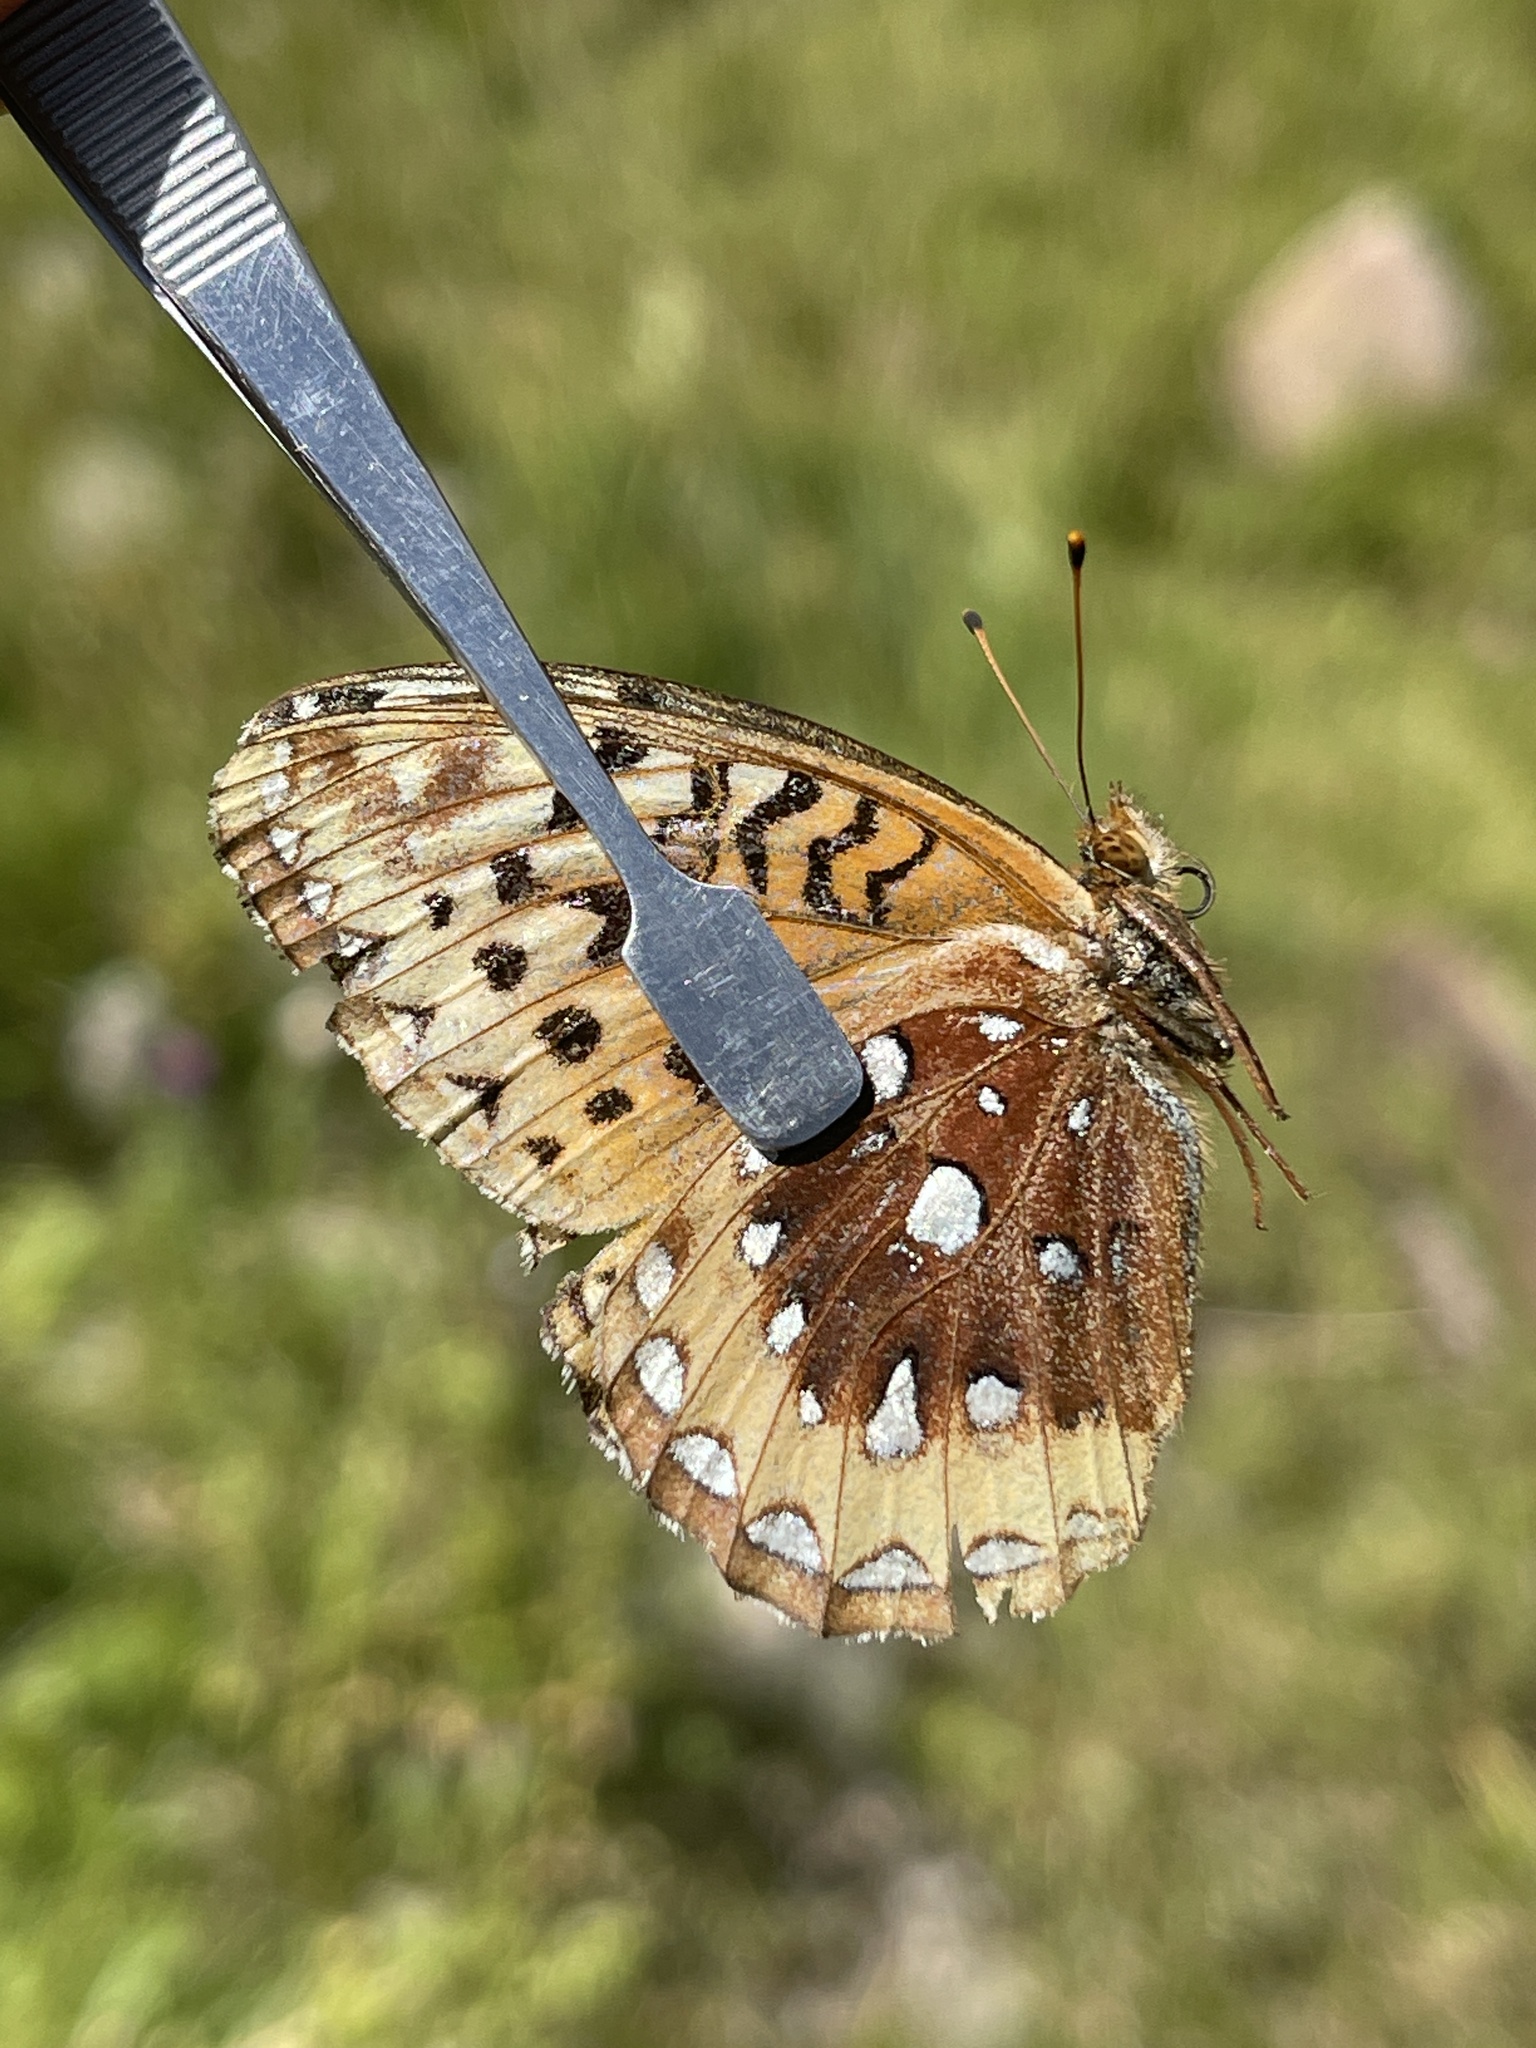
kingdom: Animalia
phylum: Arthropoda
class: Insecta
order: Lepidoptera
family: Nymphalidae
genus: Speyeria
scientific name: Speyeria cybele
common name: Great spangled fritillary
